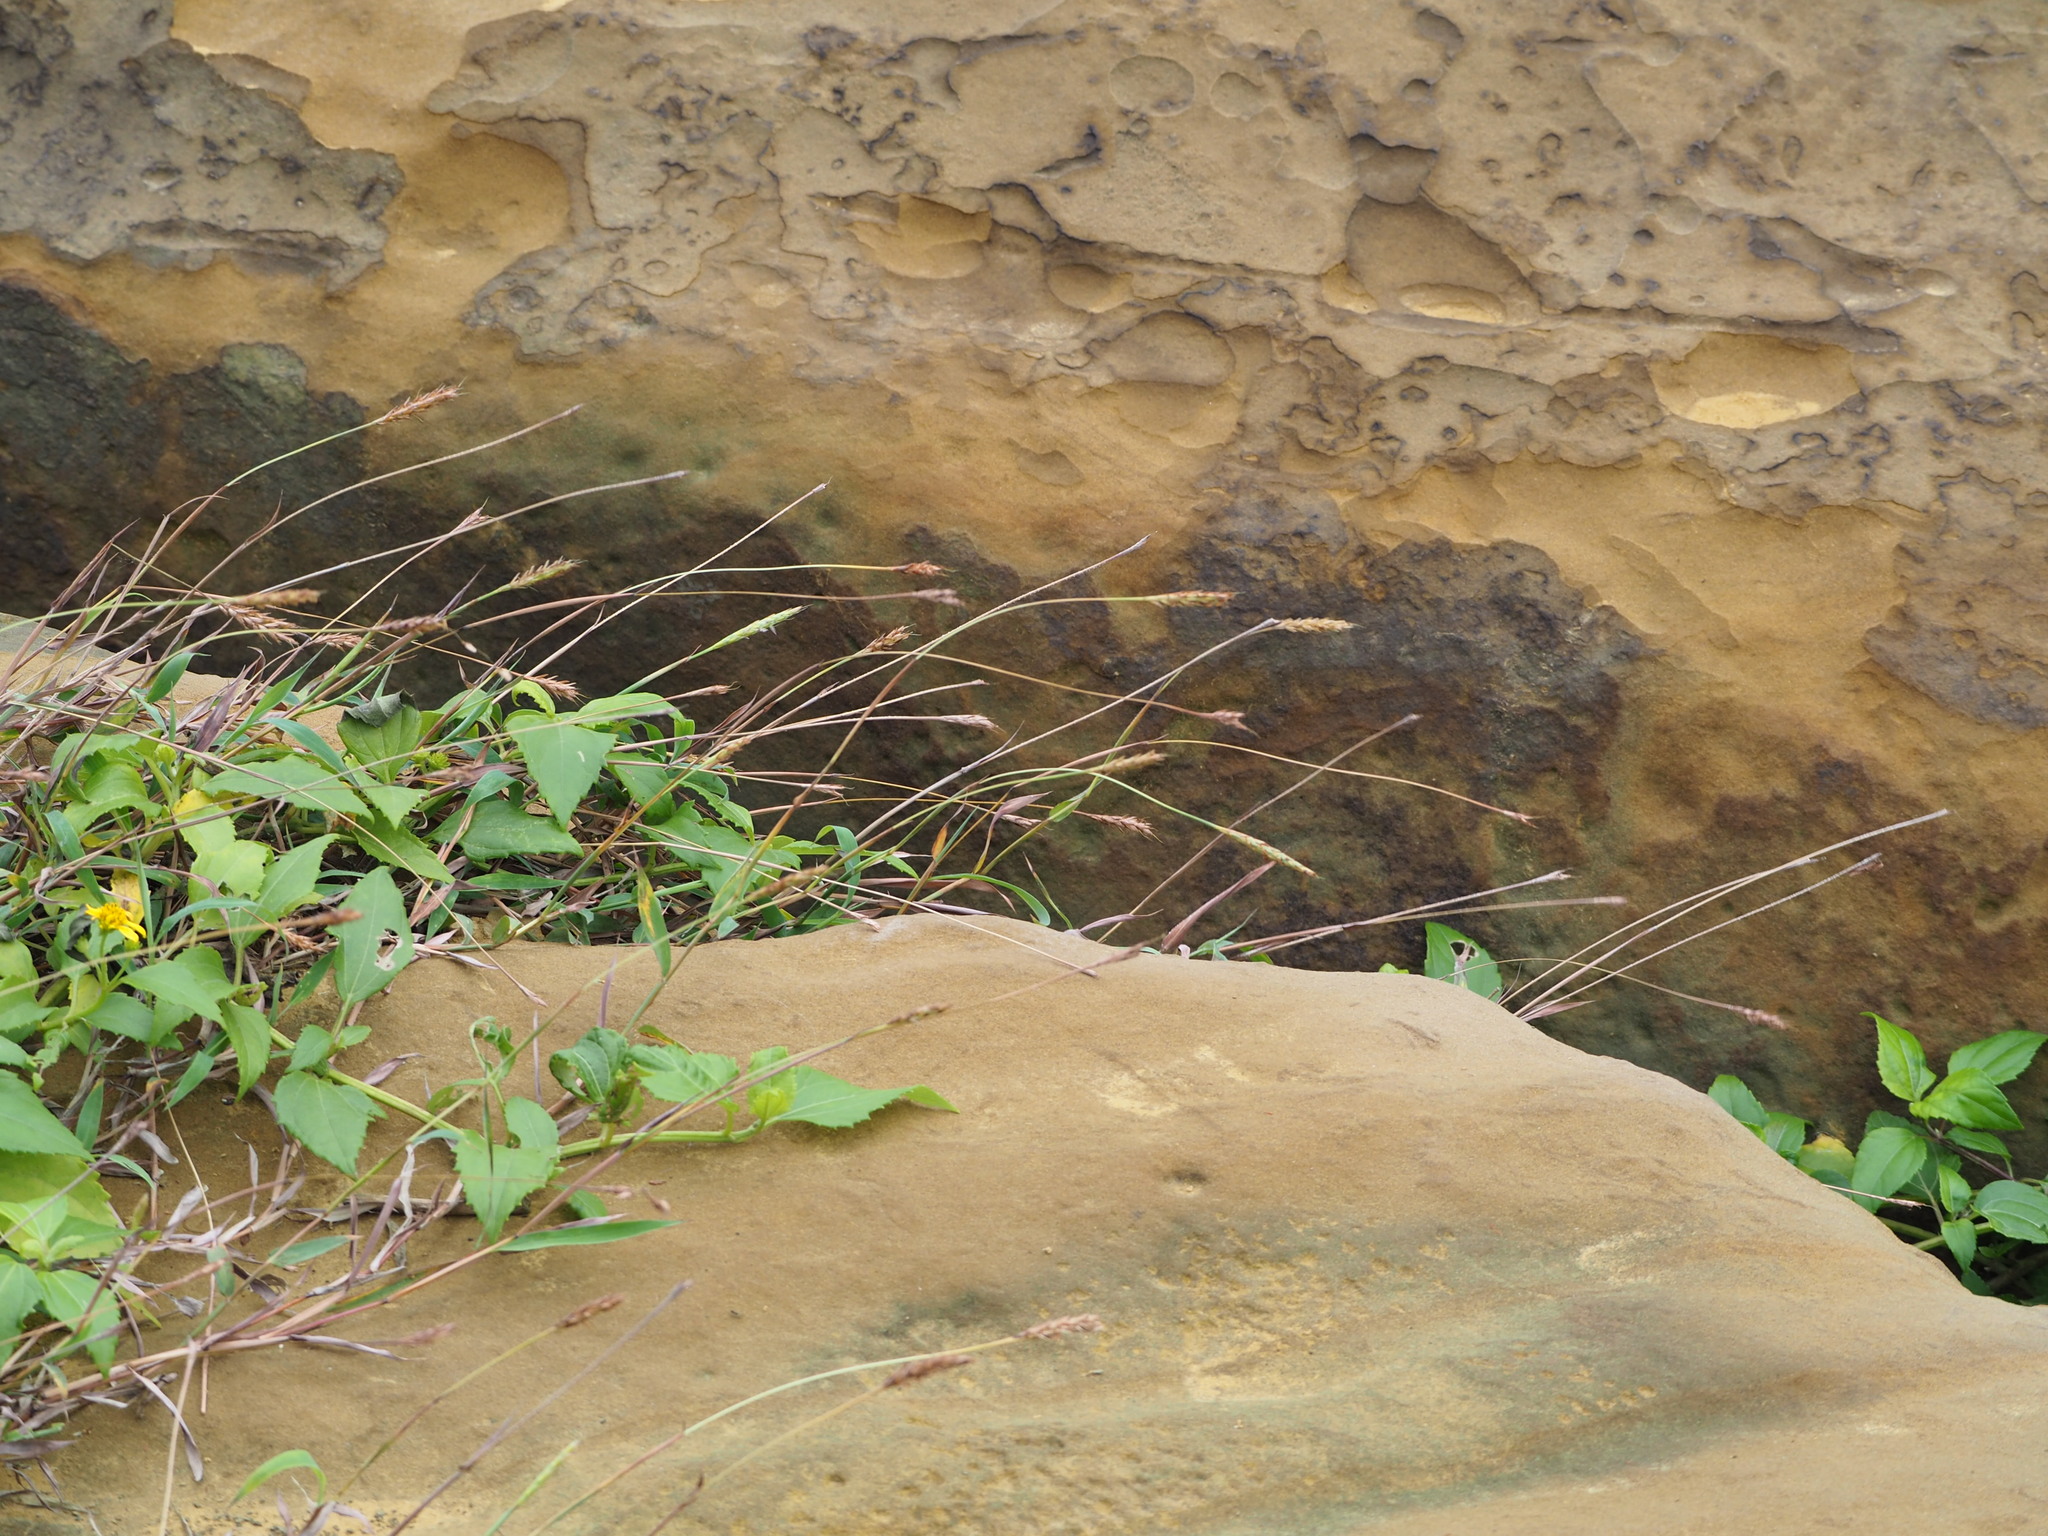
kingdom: Plantae
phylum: Tracheophyta
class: Liliopsida
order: Poales
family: Poaceae
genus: Ischaemum
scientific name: Ischaemum ciliare
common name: Grass
